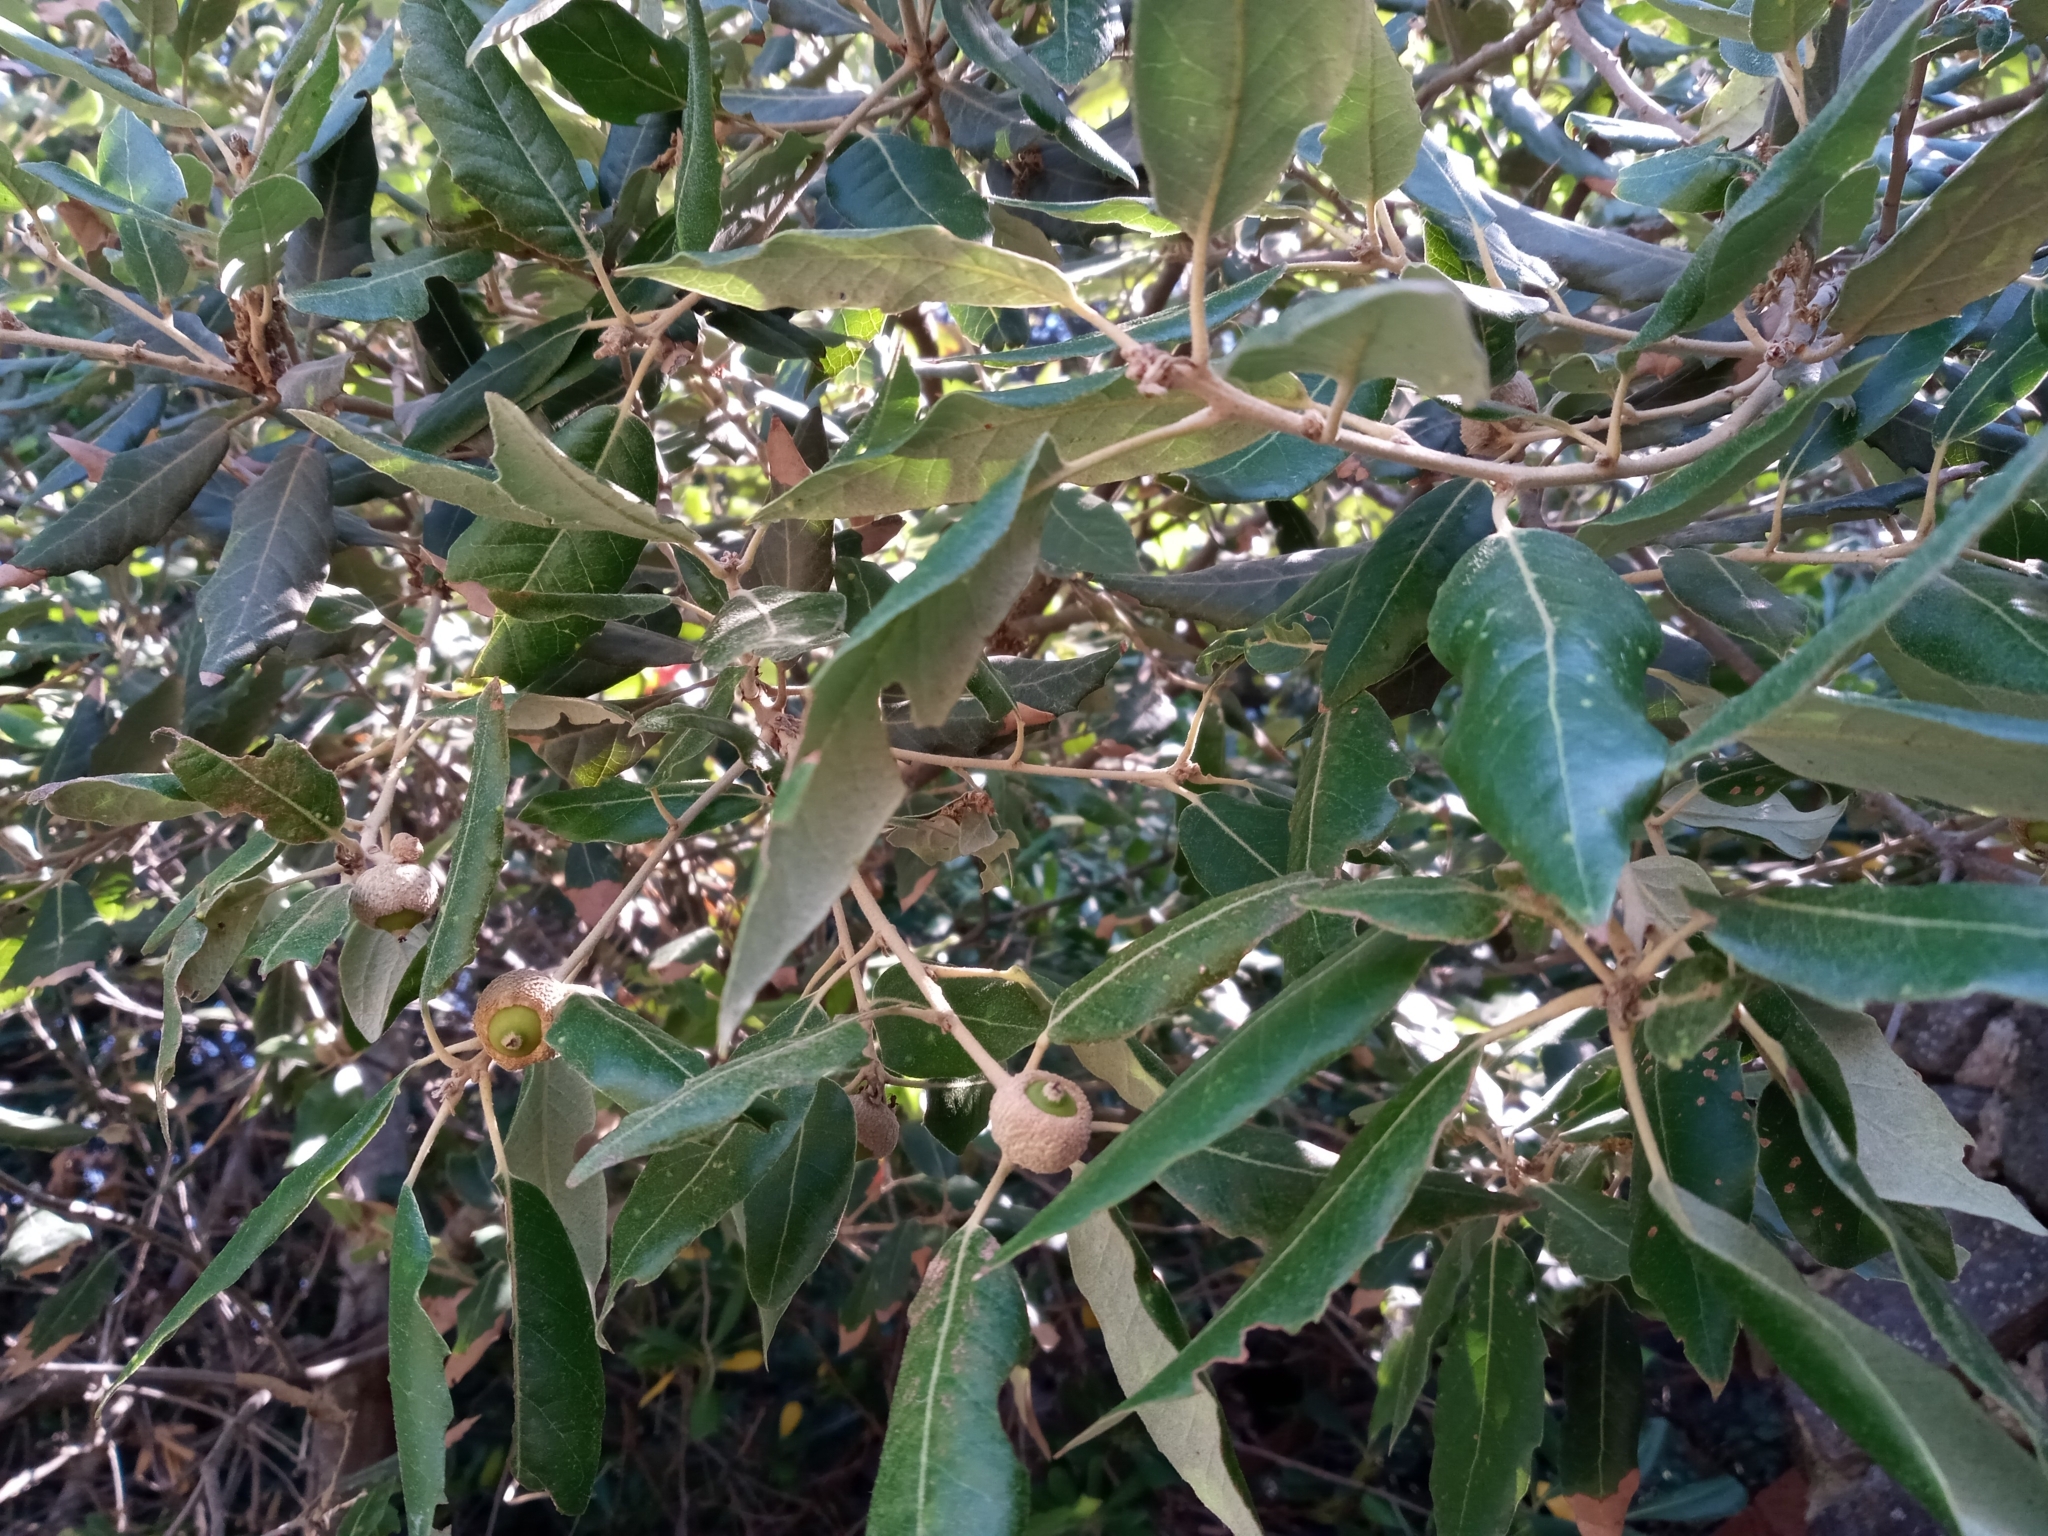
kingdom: Plantae
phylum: Tracheophyta
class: Magnoliopsida
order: Fagales
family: Fagaceae
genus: Quercus
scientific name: Quercus ilex
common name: Evergreen oak
